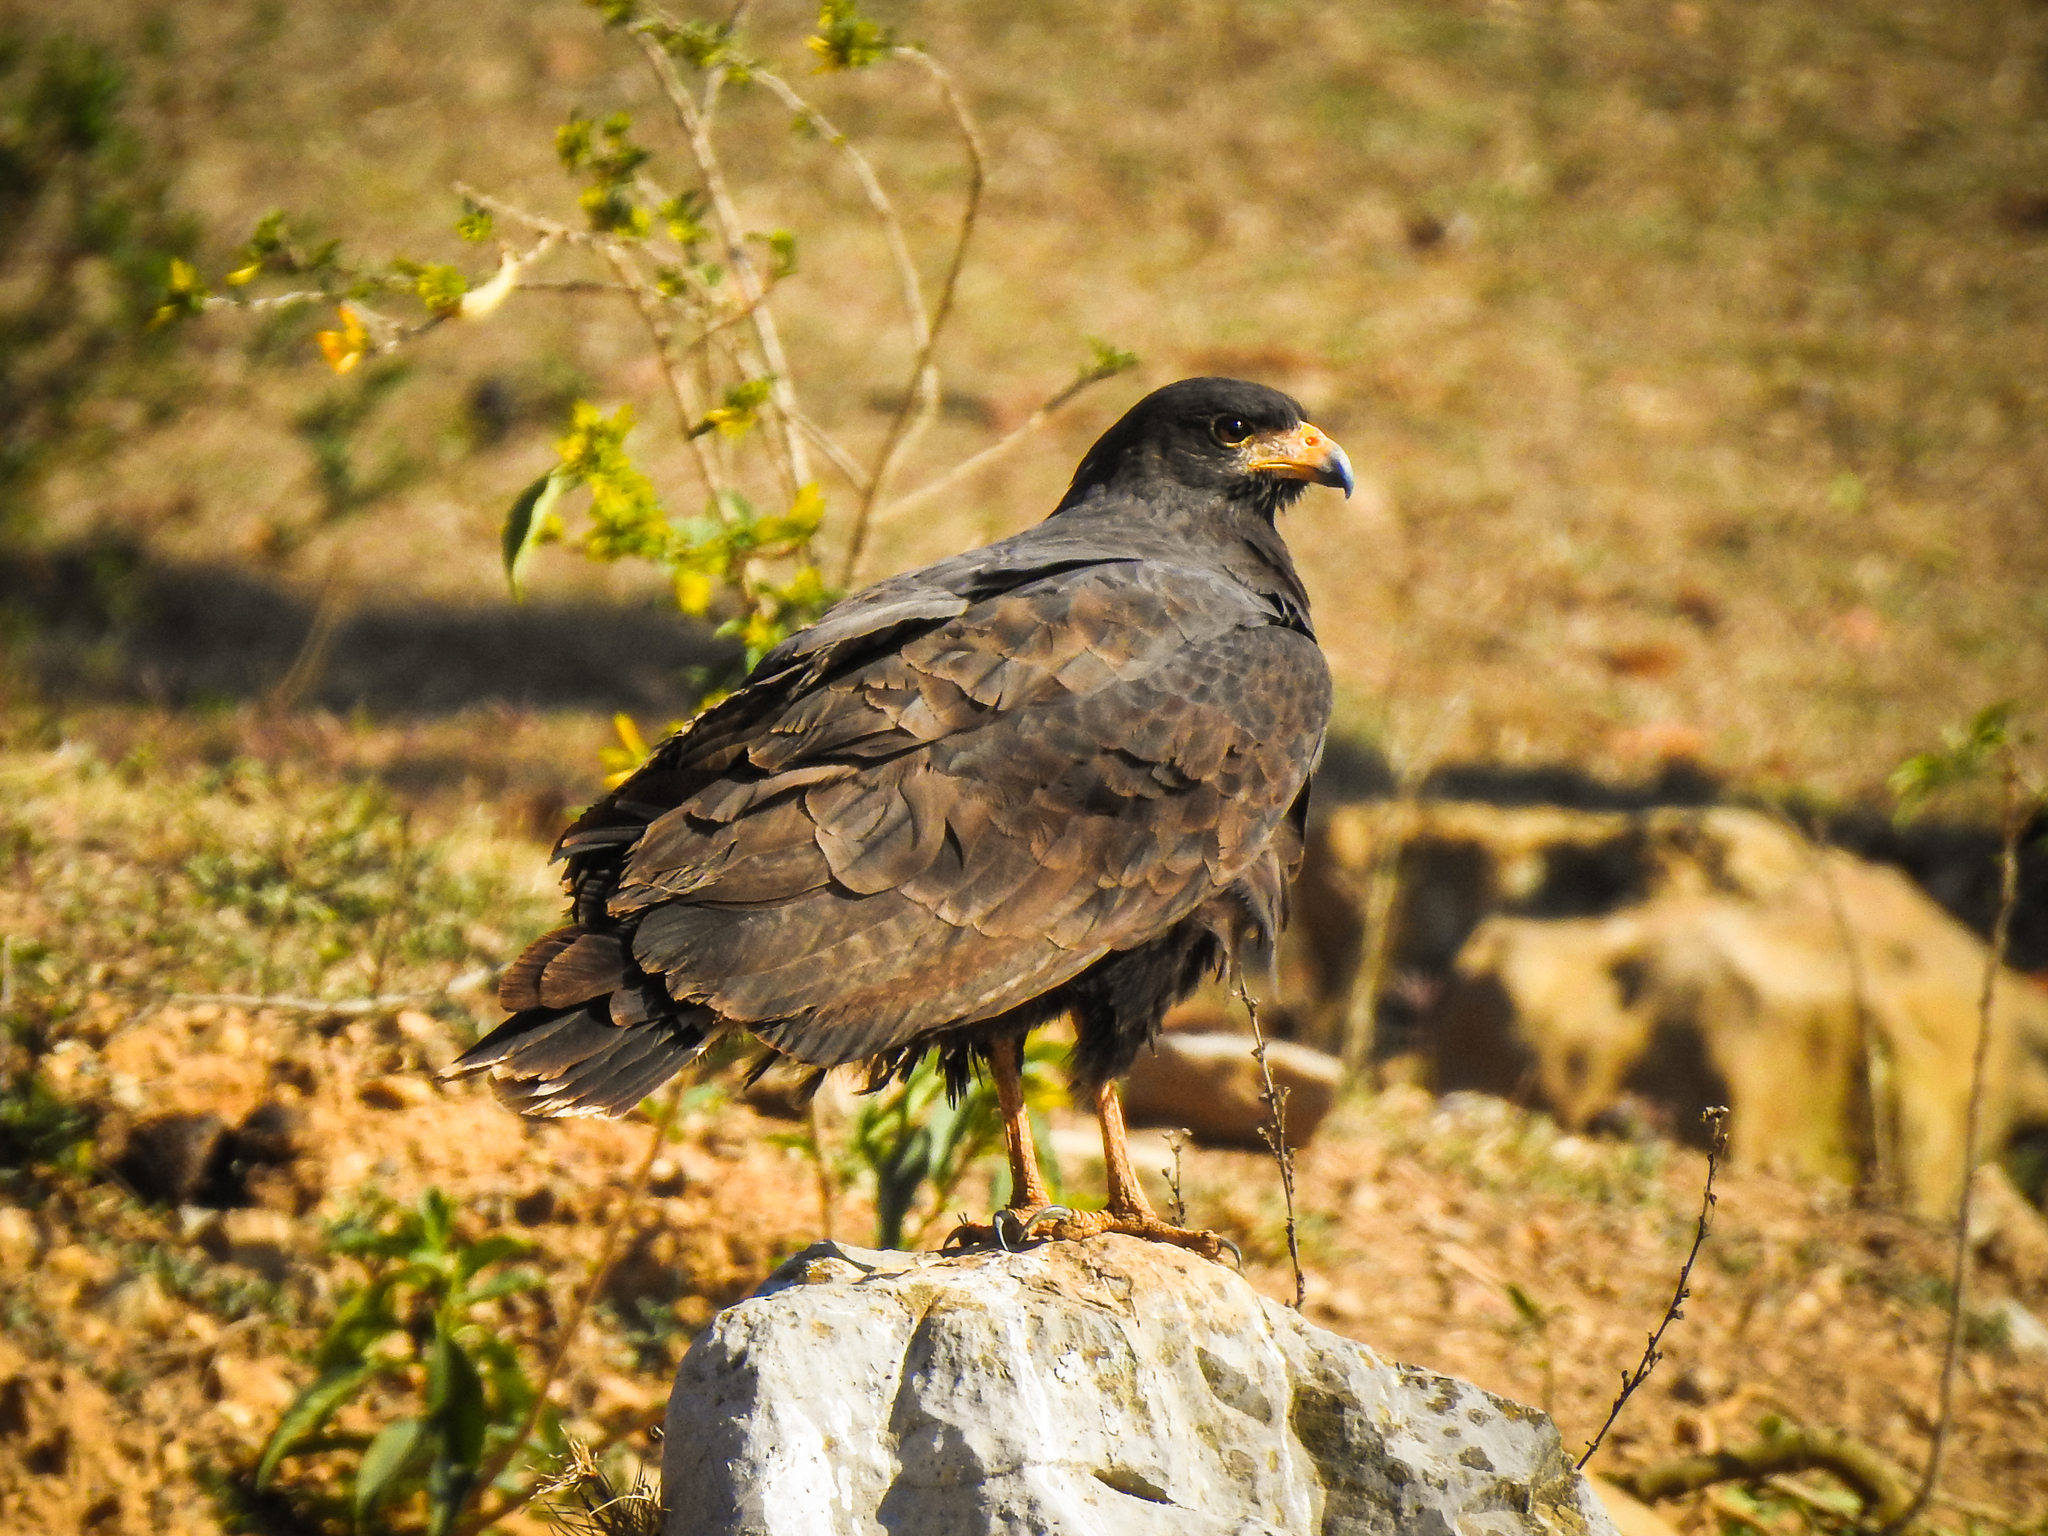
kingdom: Animalia
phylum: Chordata
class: Aves
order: Accipitriformes
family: Accipitridae
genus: Buteogallus
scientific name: Buteogallus anthracinus
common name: Common black hawk
